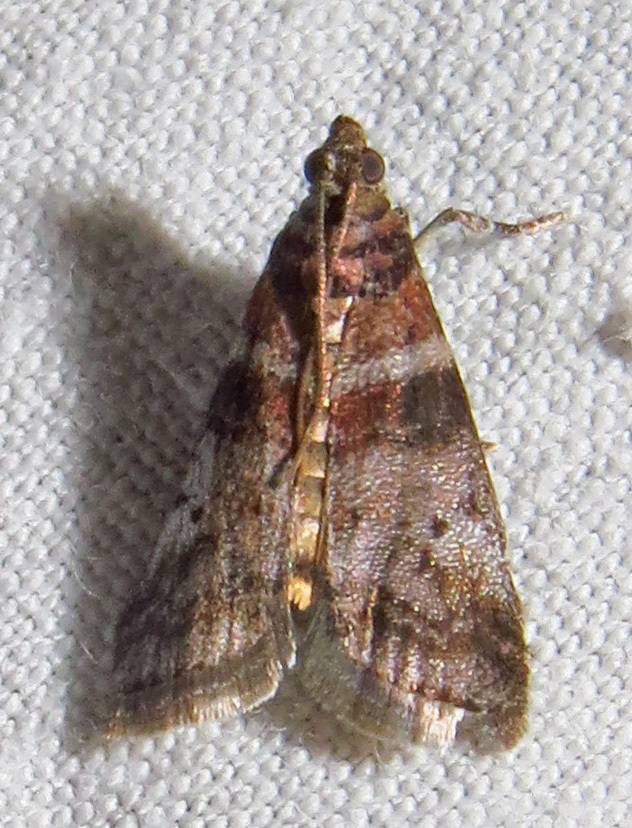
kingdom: Animalia
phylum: Arthropoda
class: Insecta
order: Lepidoptera
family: Pyralidae
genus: Sciota
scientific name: Sciota uvinella
